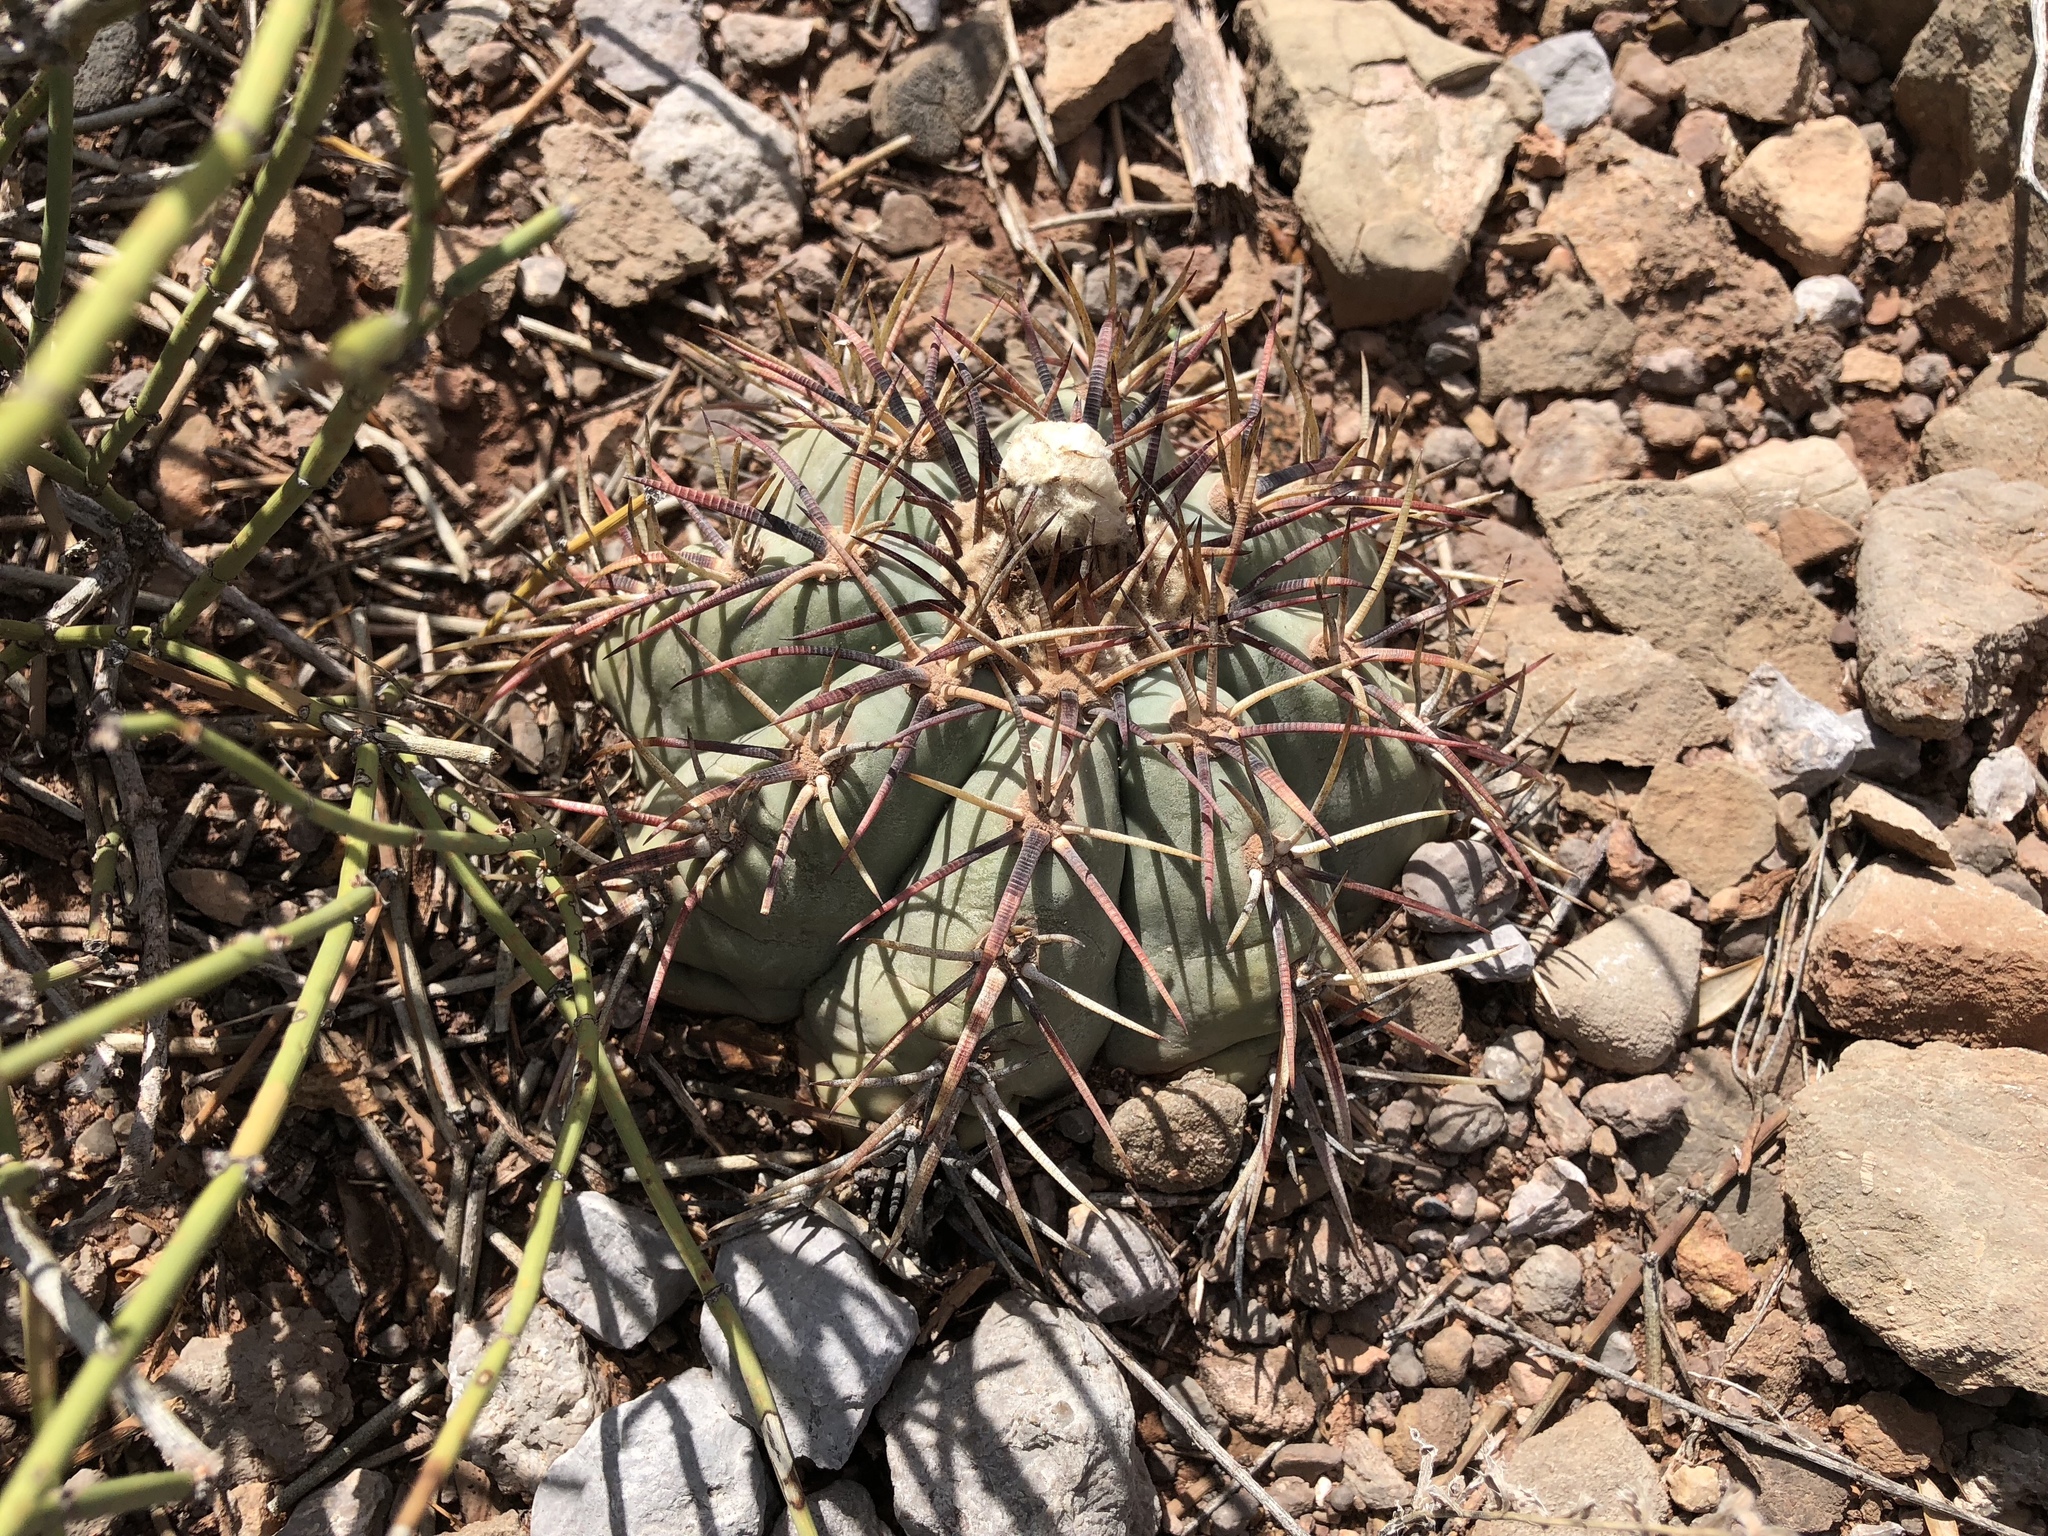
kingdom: Plantae
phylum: Tracheophyta
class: Magnoliopsida
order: Caryophyllales
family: Cactaceae
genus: Echinocactus
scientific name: Echinocactus horizonthalonius
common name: Devilshead
